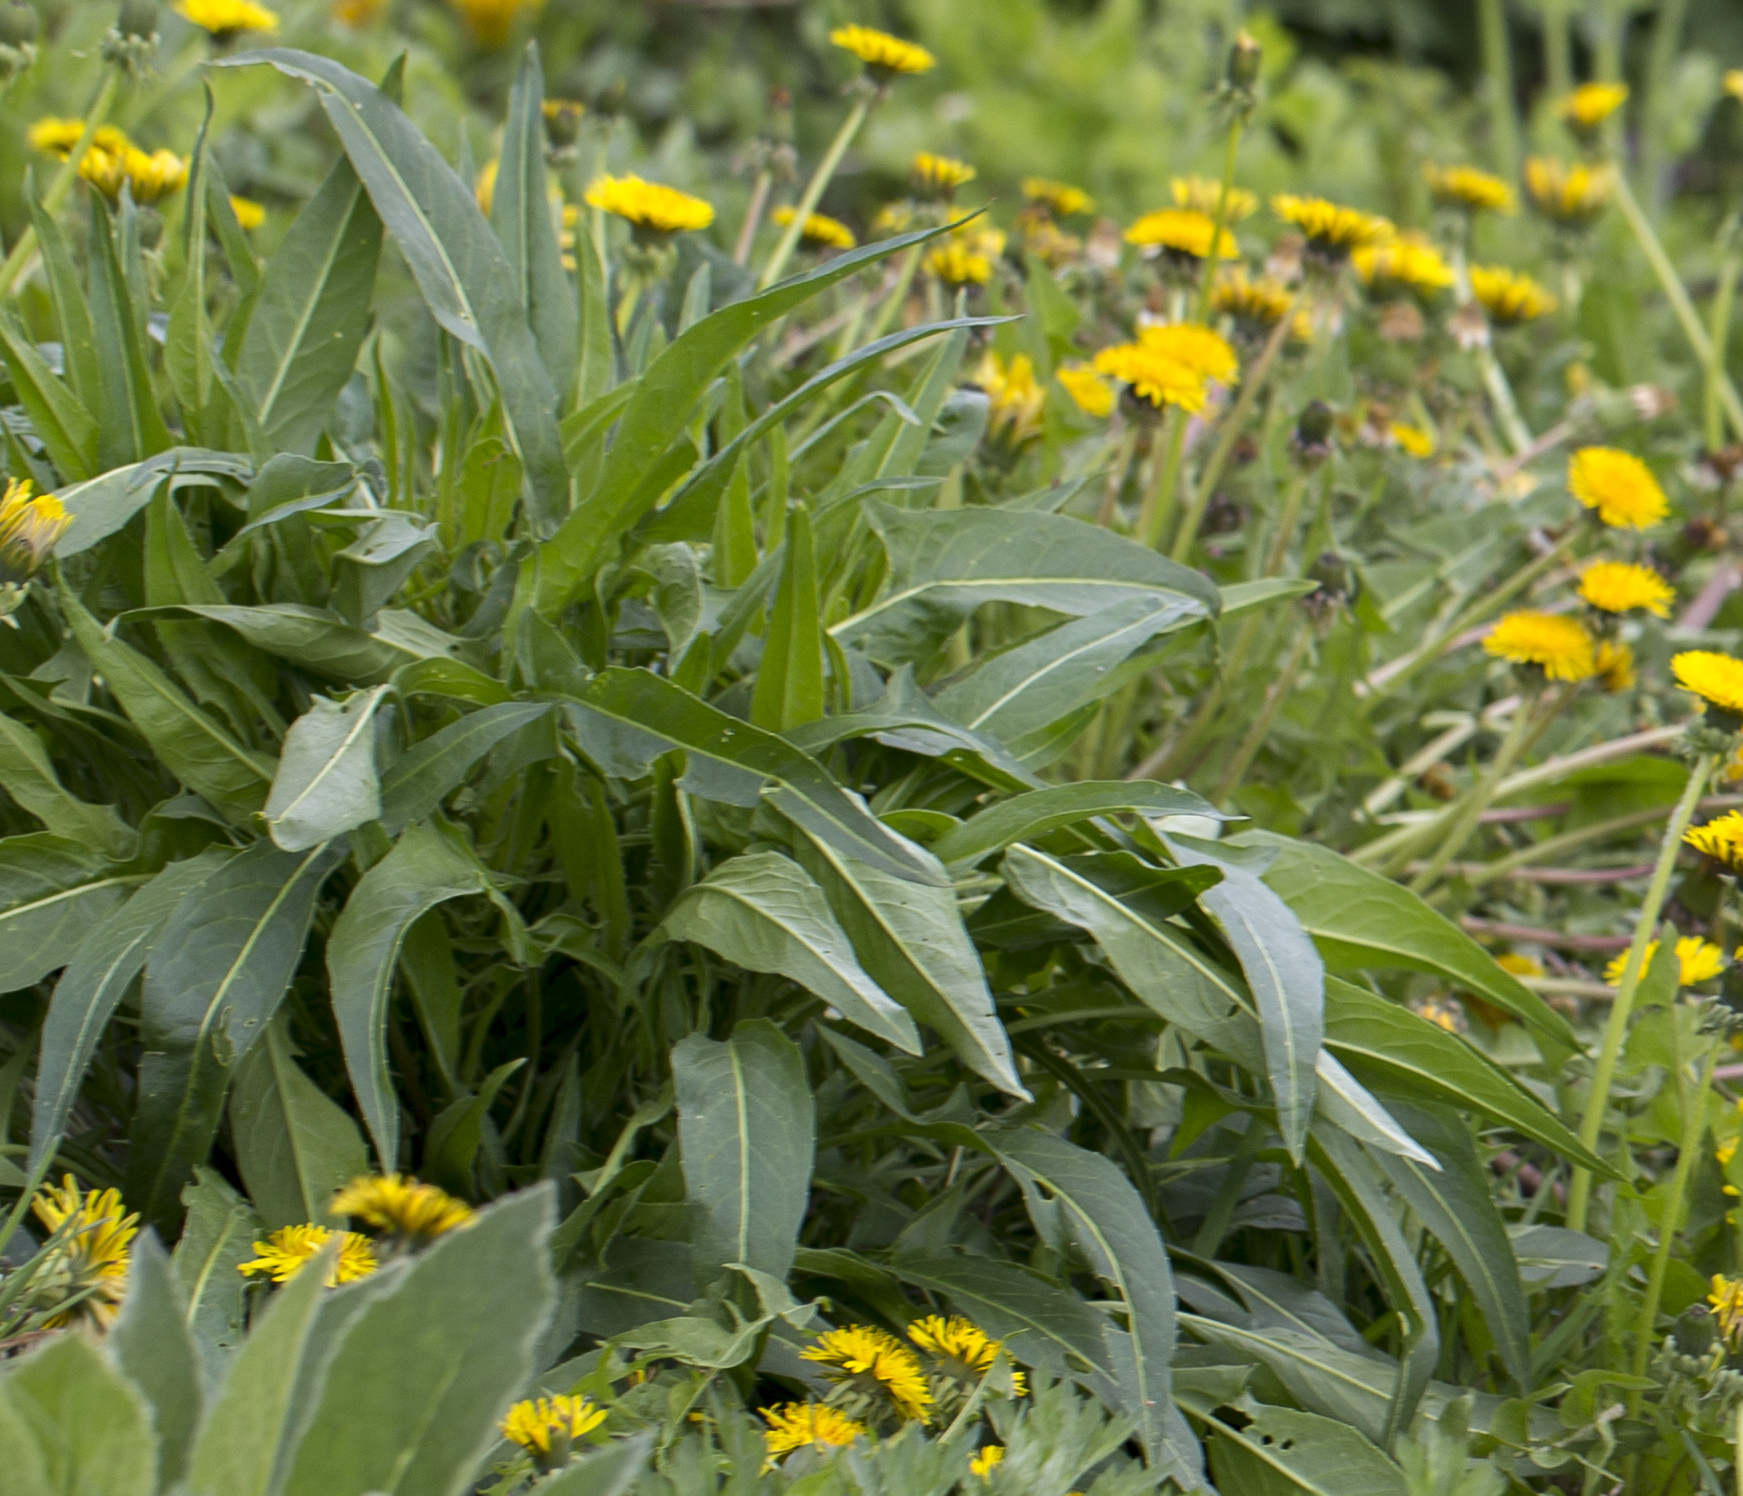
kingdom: Plantae
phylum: Tracheophyta
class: Magnoliopsida
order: Brassicales
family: Brassicaceae
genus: Bunias
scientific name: Bunias orientalis
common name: Warty-cabbage
